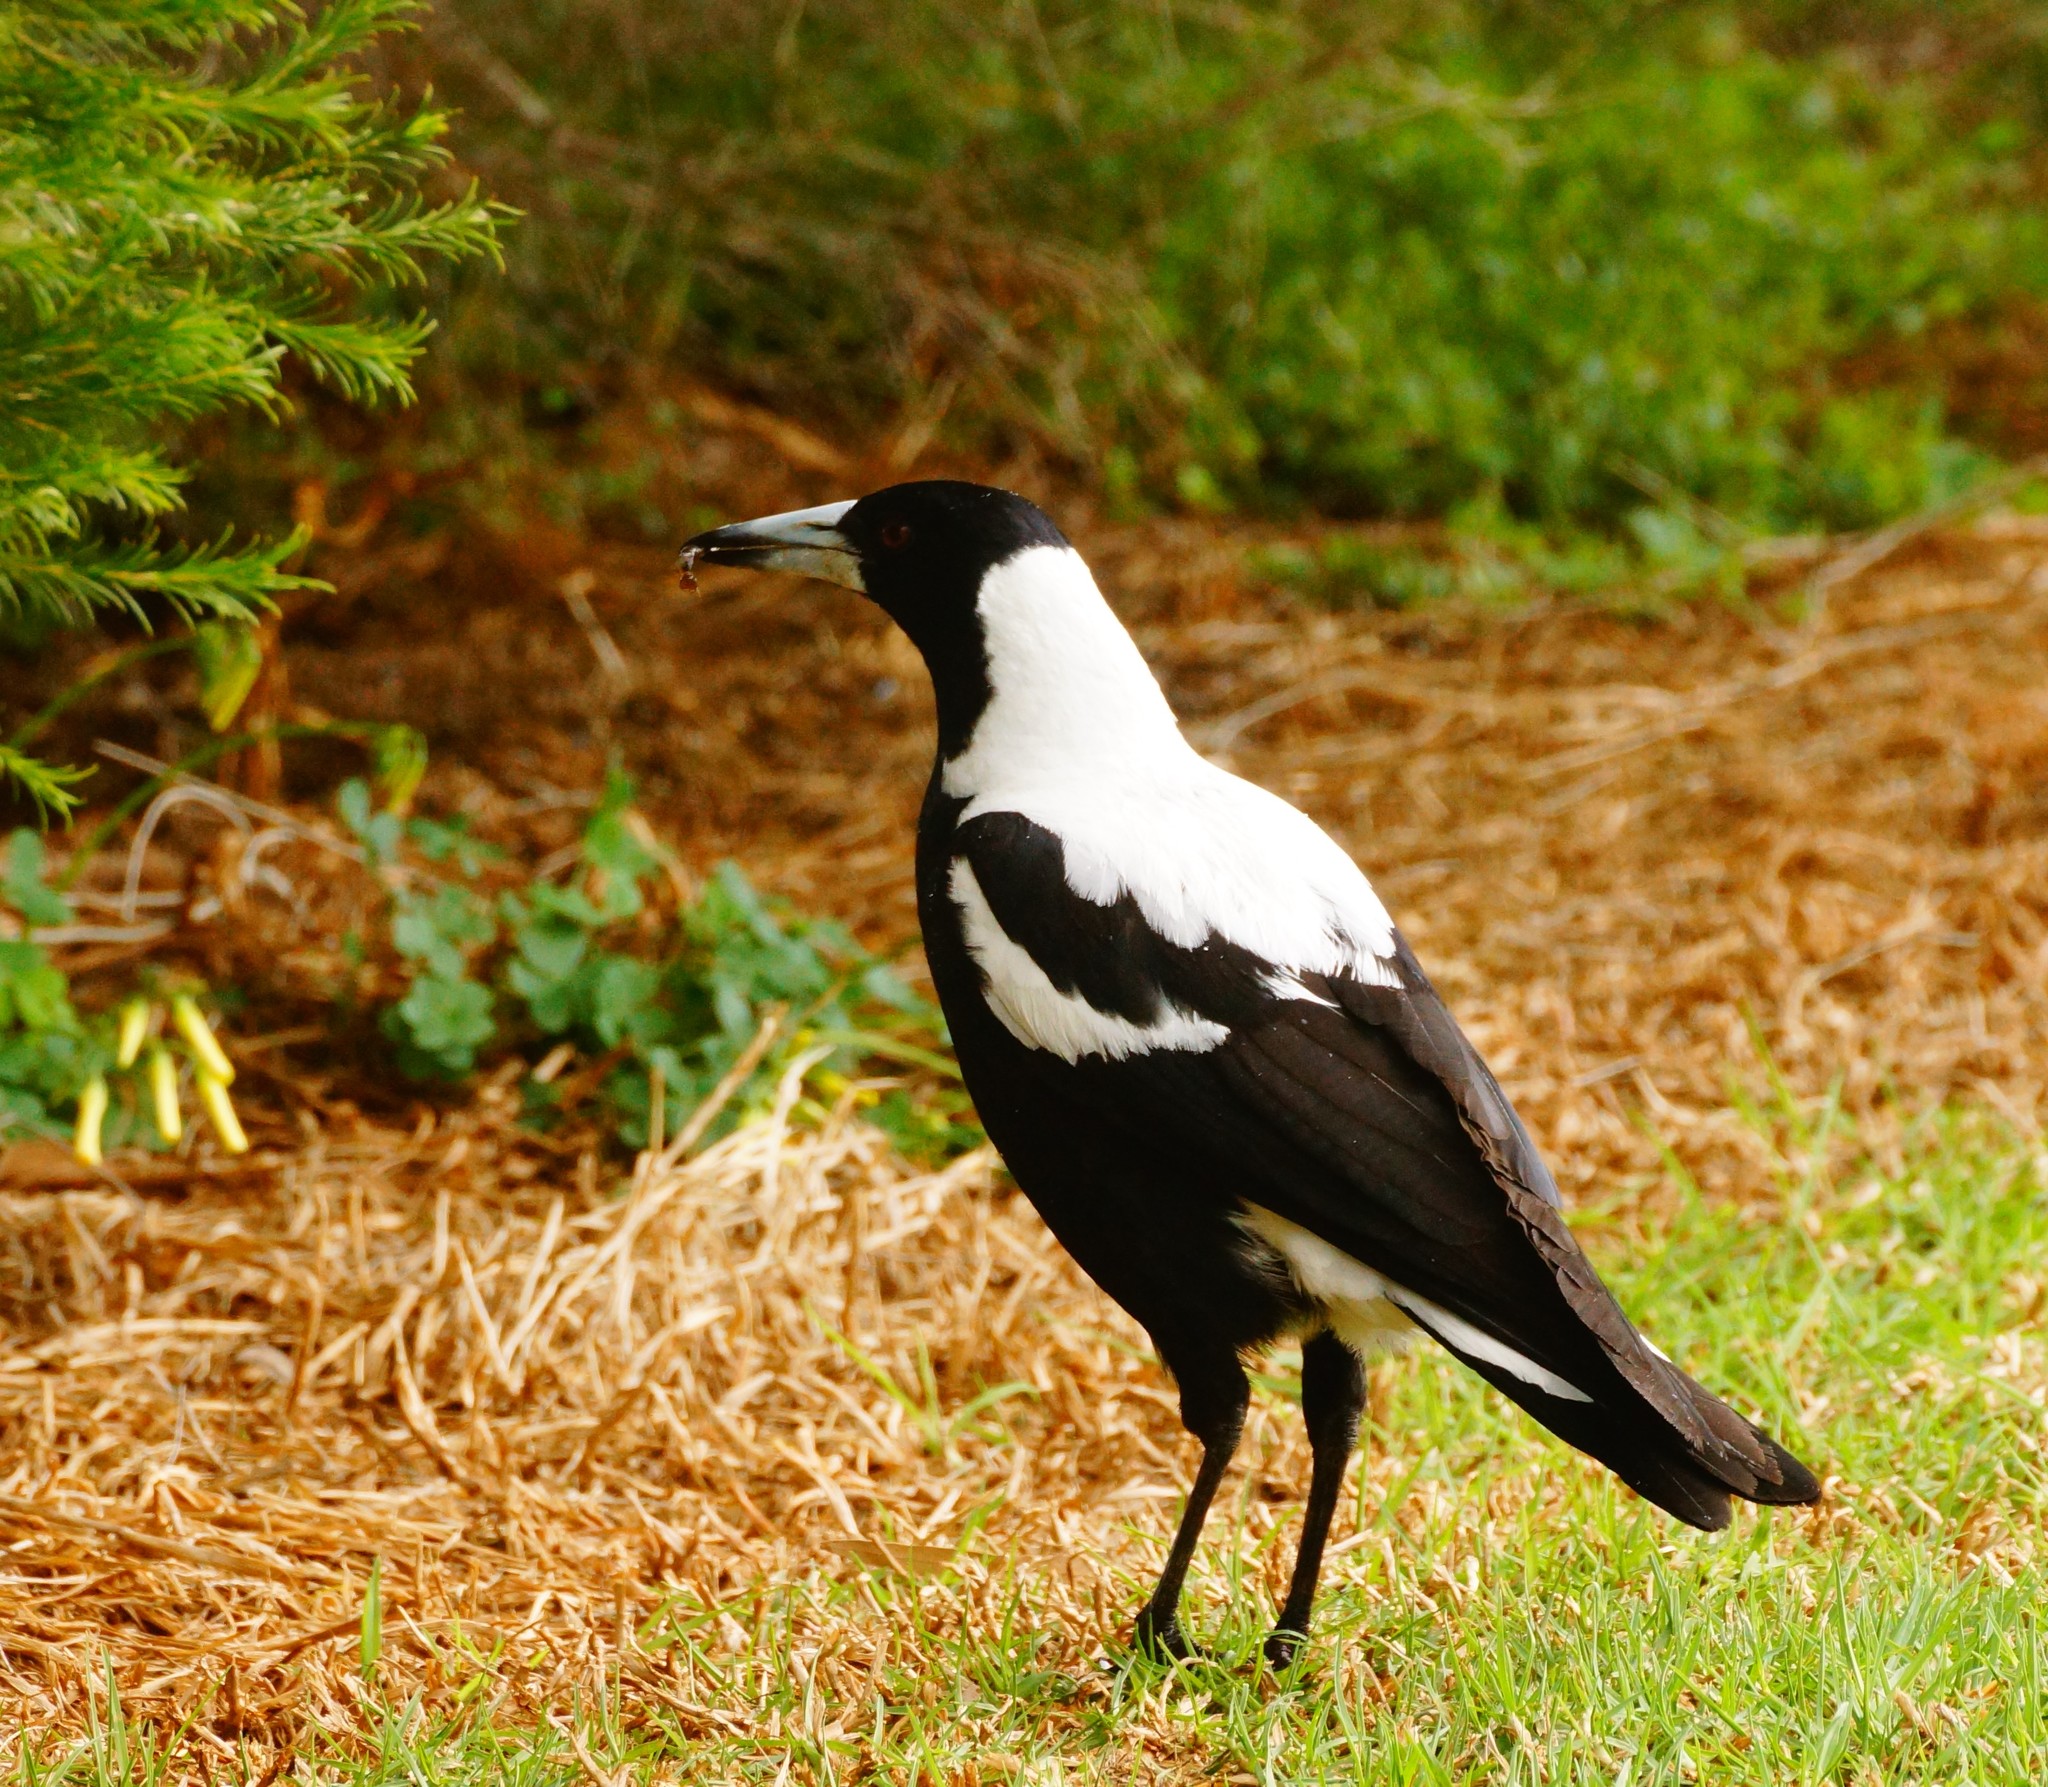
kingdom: Animalia
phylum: Chordata
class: Aves
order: Passeriformes
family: Cracticidae
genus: Gymnorhina
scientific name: Gymnorhina tibicen
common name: Australian magpie
